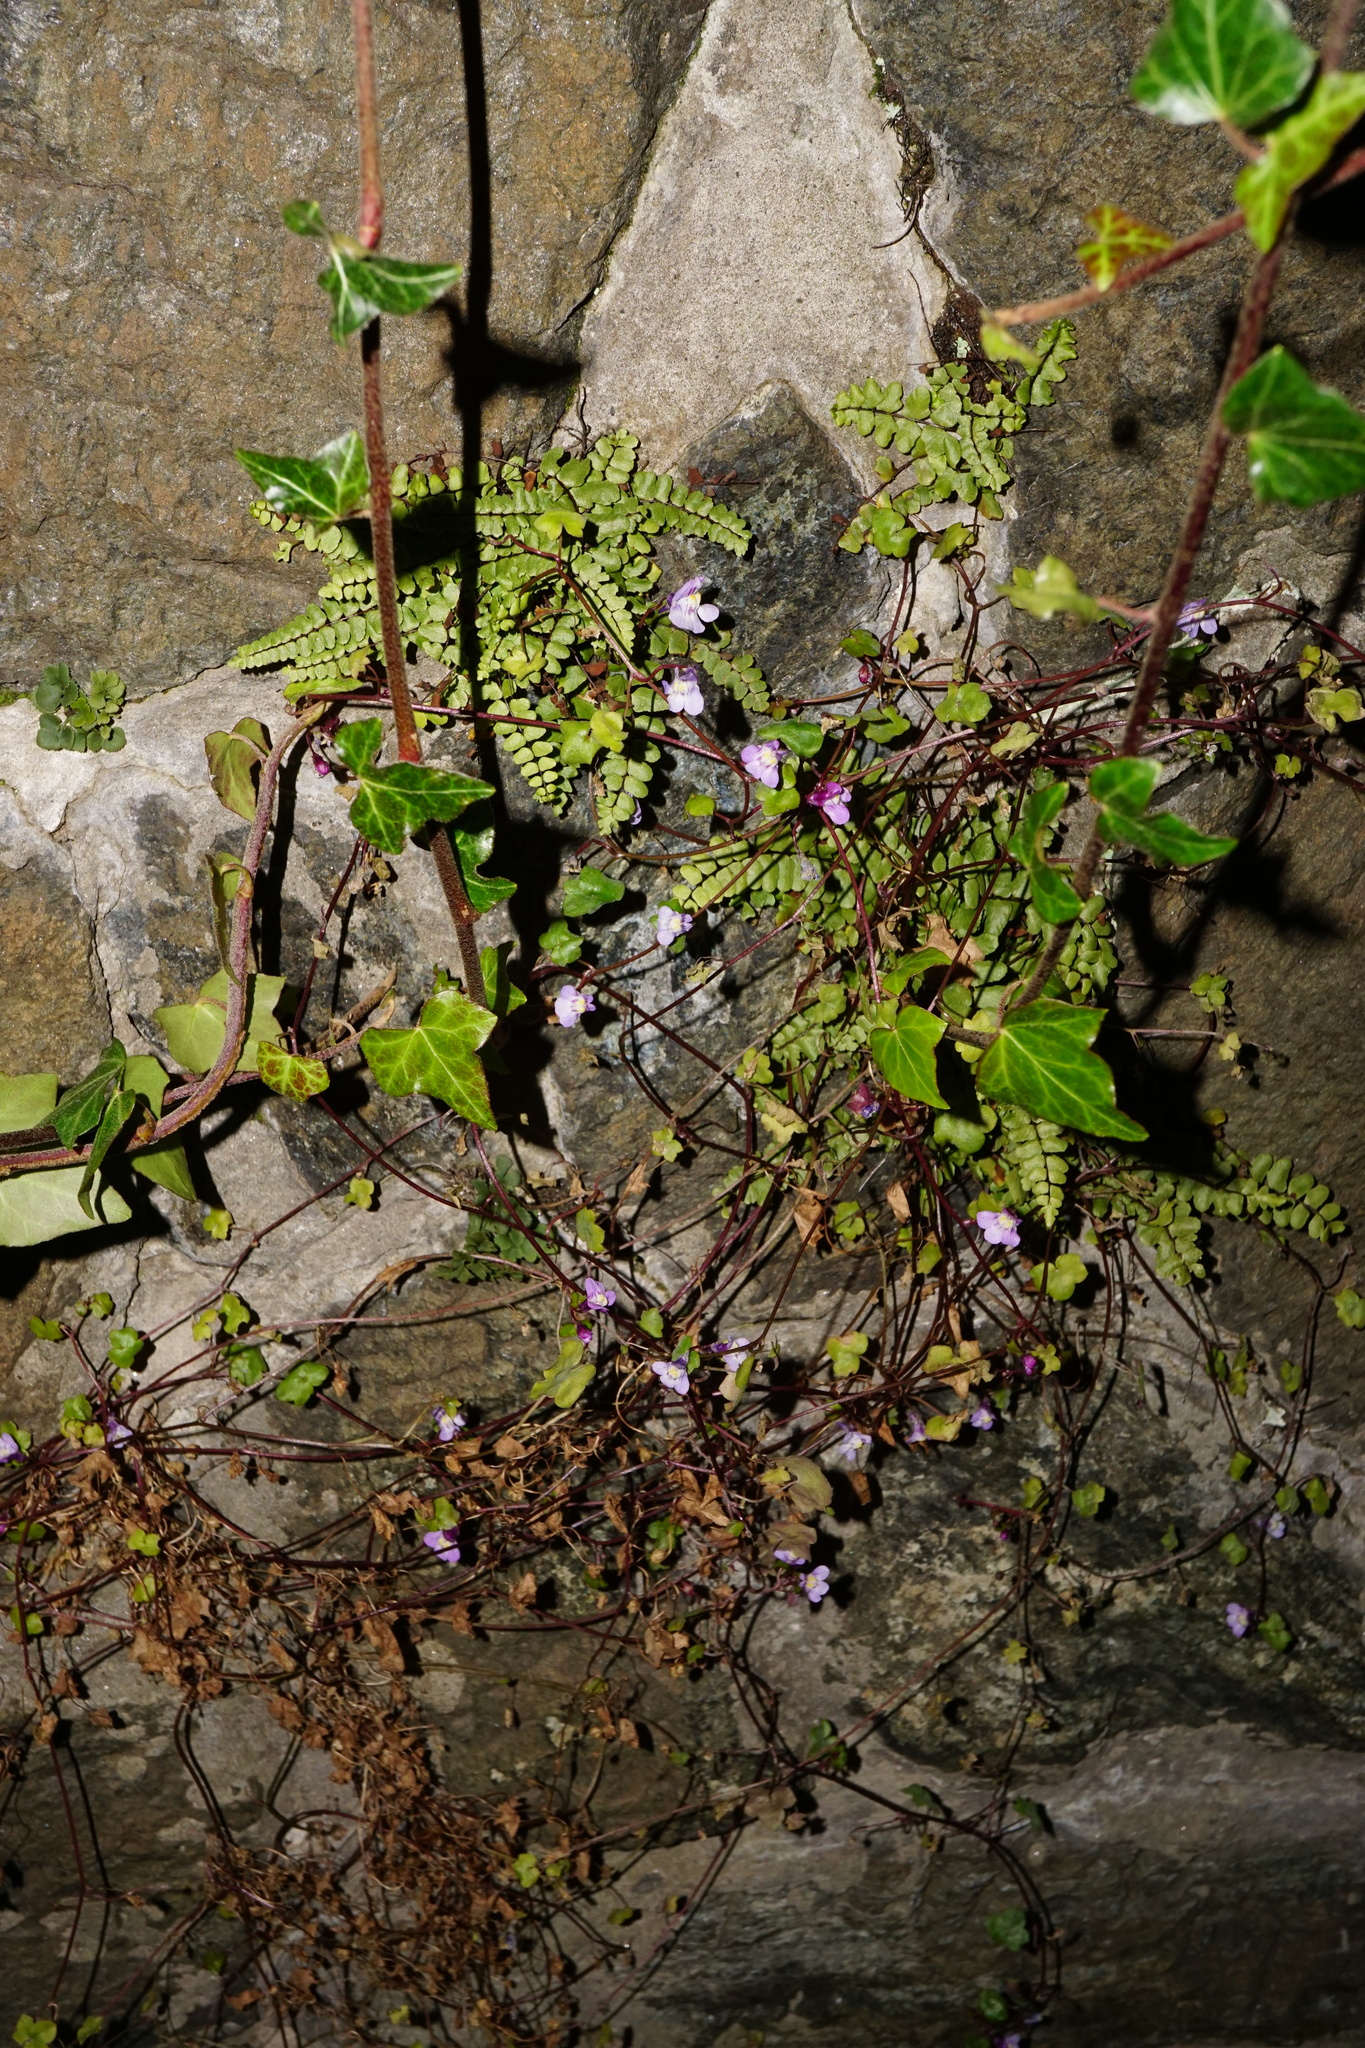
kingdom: Plantae
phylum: Tracheophyta
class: Magnoliopsida
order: Lamiales
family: Plantaginaceae
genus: Cymbalaria
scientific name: Cymbalaria muralis
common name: Ivy-leaved toadflax
